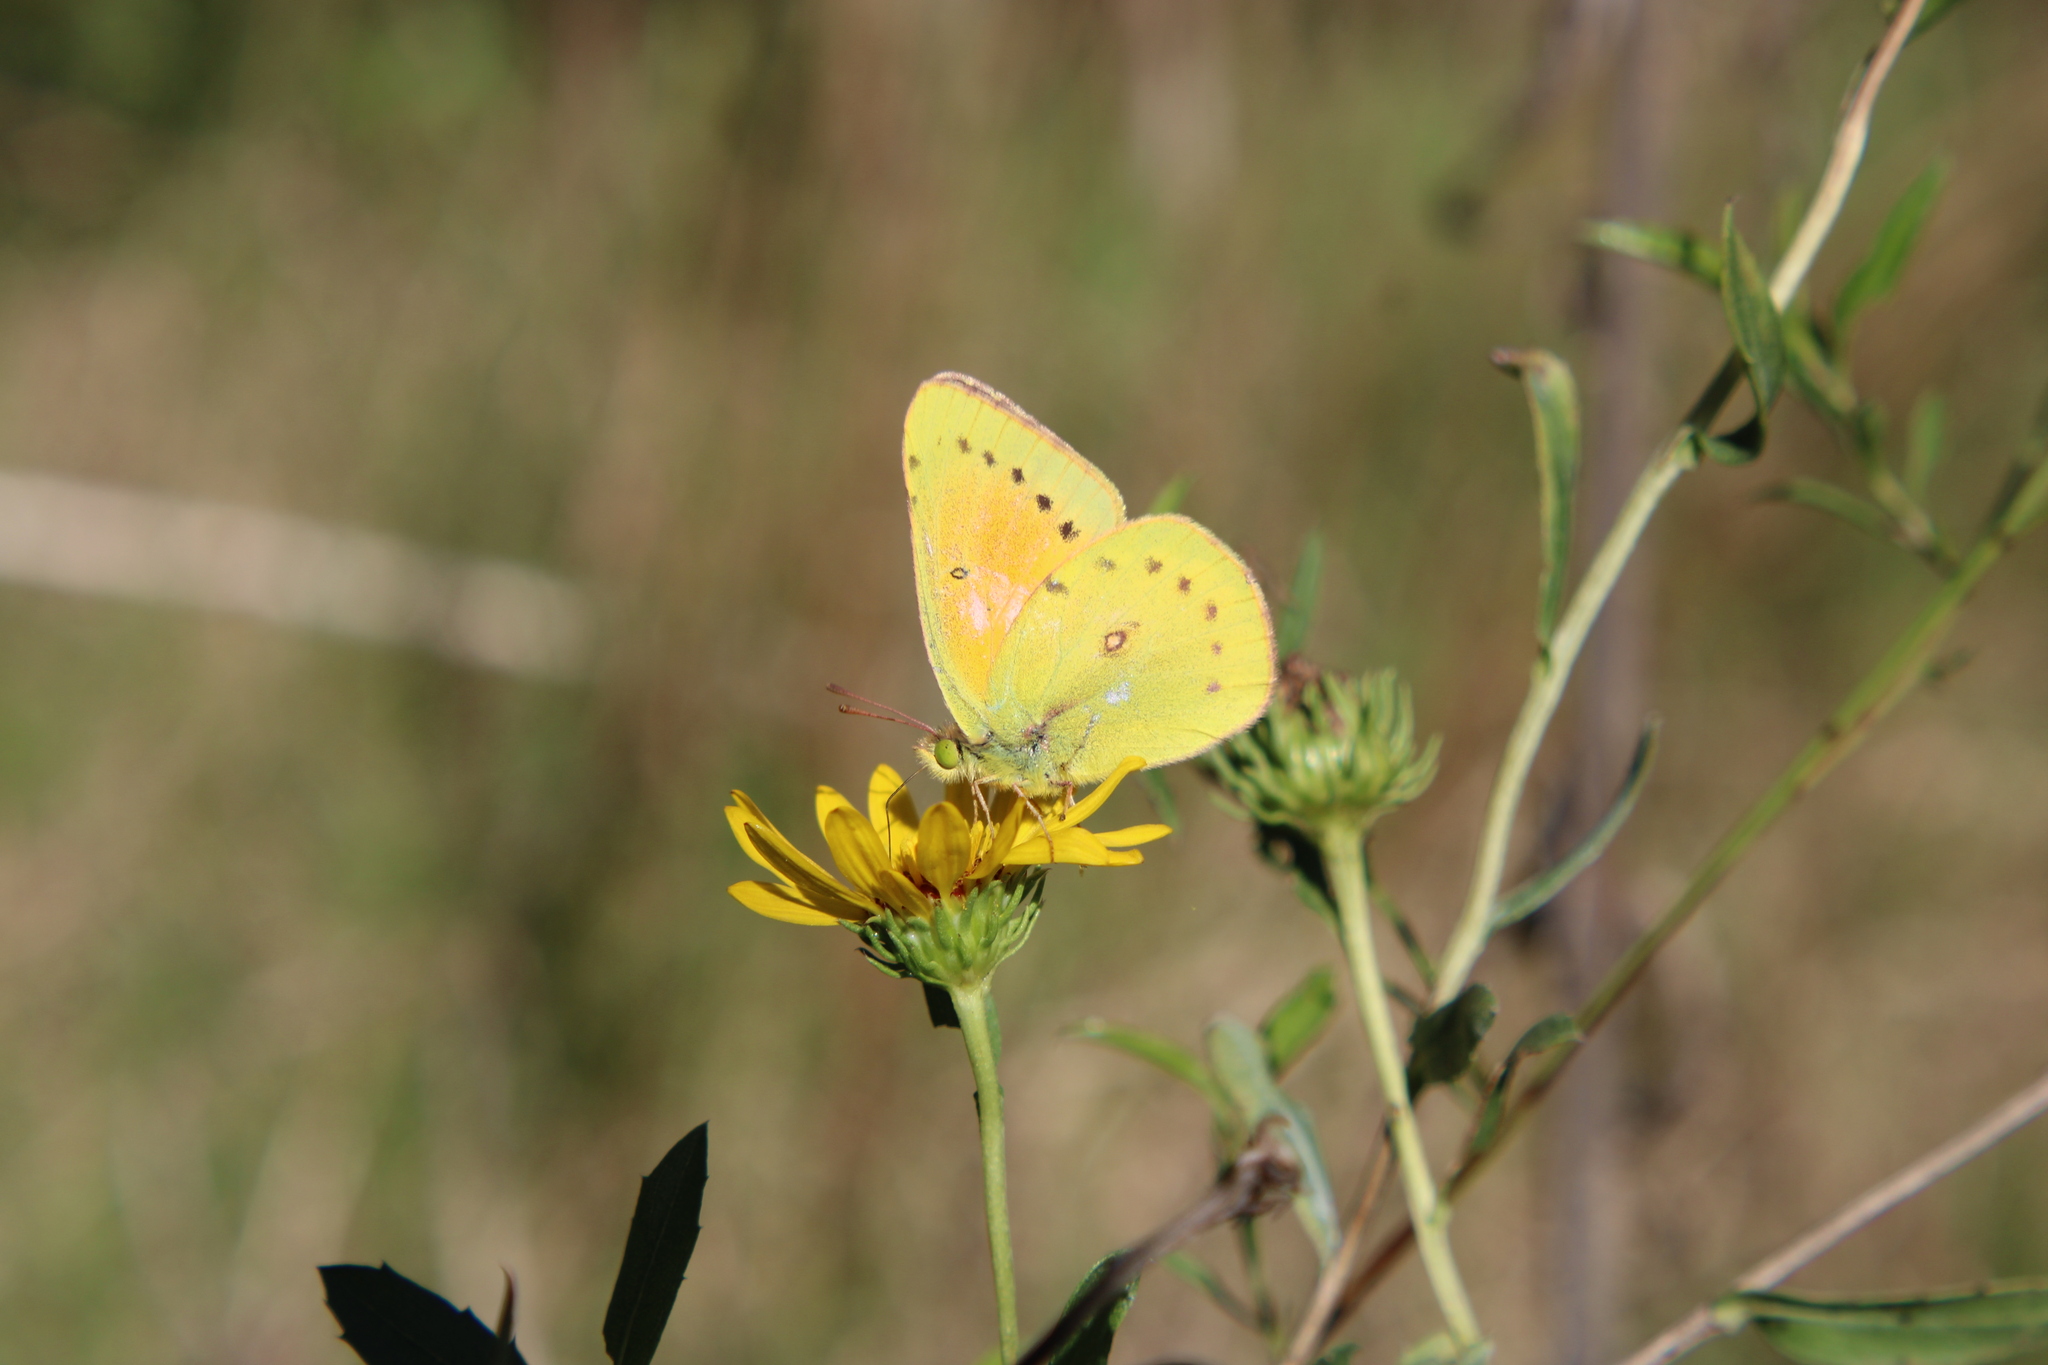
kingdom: Animalia
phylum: Arthropoda
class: Insecta
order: Lepidoptera
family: Pieridae
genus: Colias
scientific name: Colias lesbia
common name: Lesbia clouded yellow
